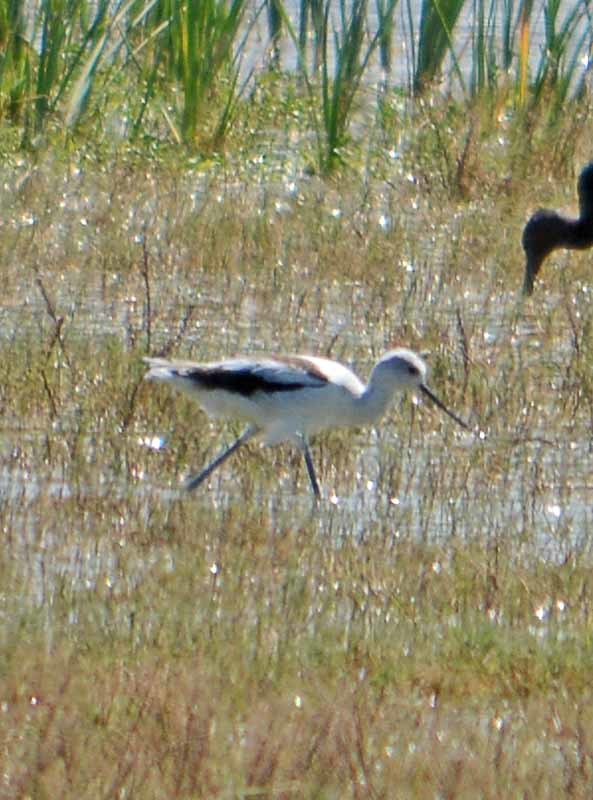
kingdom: Animalia
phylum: Chordata
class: Aves
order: Charadriiformes
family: Recurvirostridae
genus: Recurvirostra
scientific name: Recurvirostra americana
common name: American avocet
